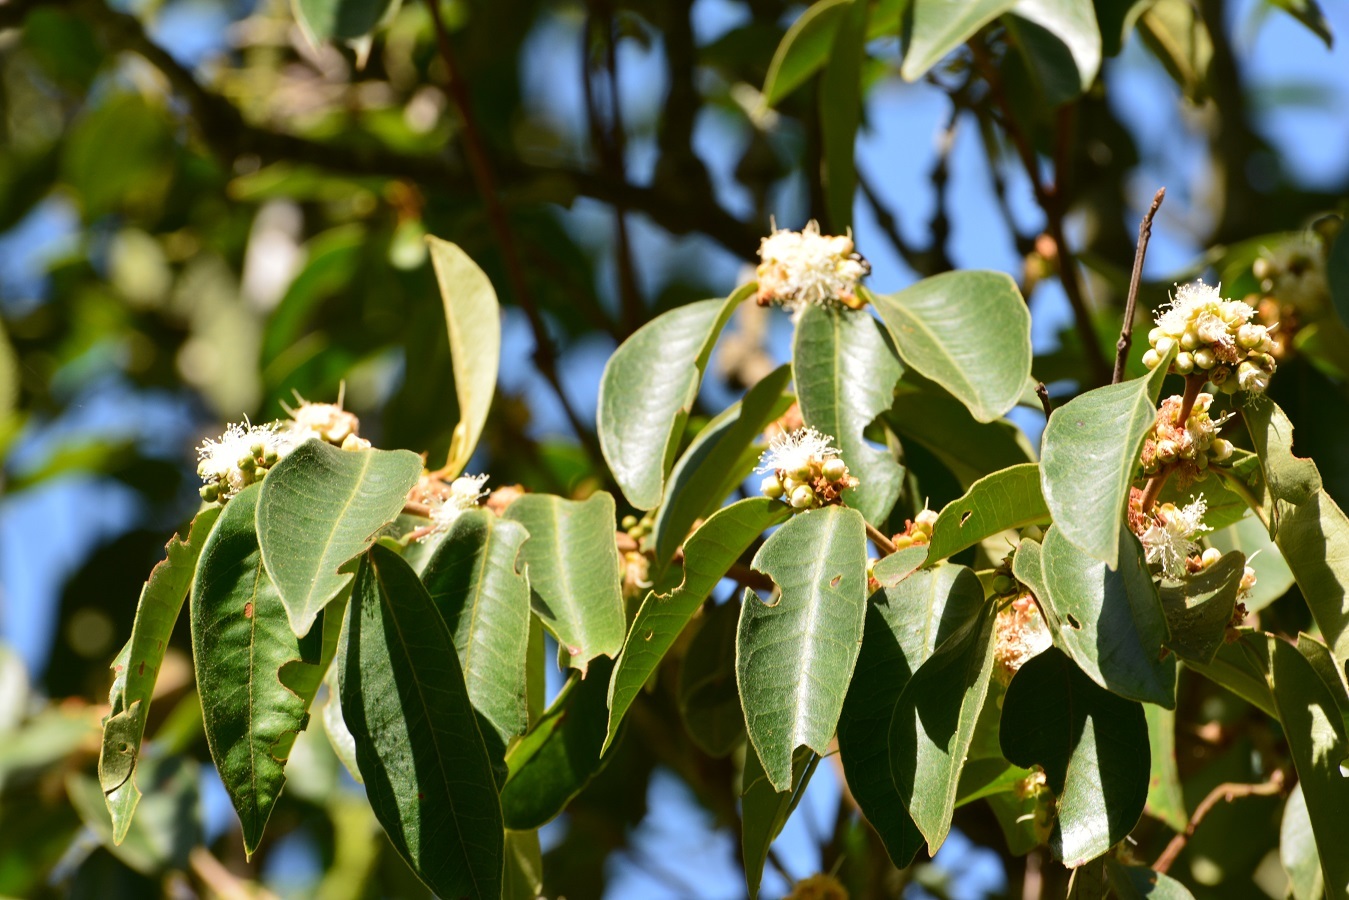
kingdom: Plantae
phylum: Tracheophyta
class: Magnoliopsida
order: Myrtales
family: Myrtaceae
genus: Eugenia
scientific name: Eugenia capuli
